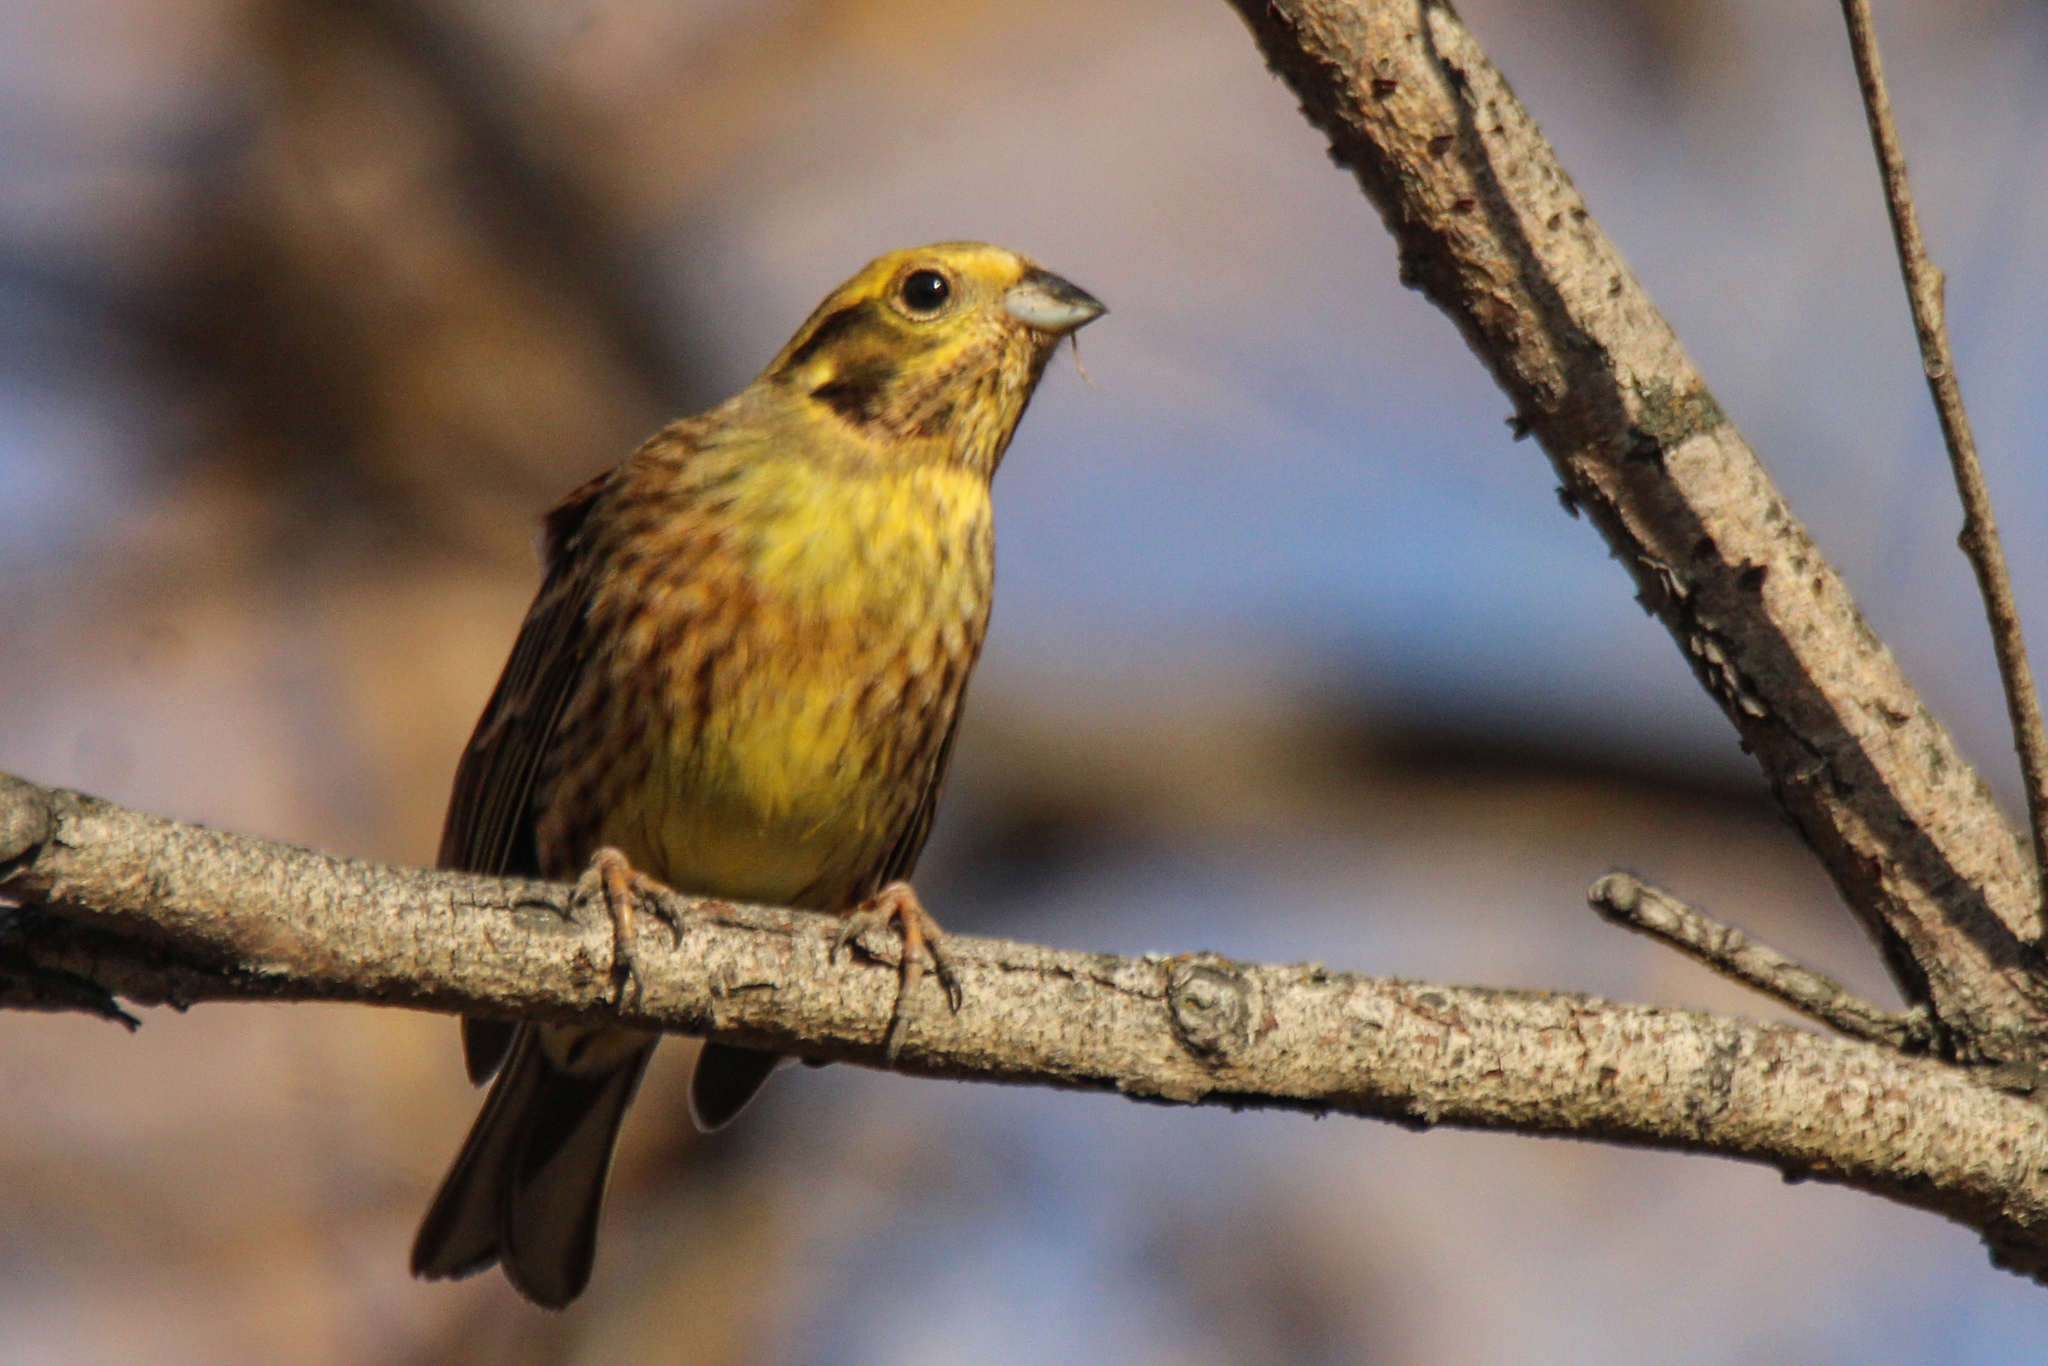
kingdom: Animalia
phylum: Chordata
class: Aves
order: Passeriformes
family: Emberizidae
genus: Emberiza
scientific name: Emberiza
